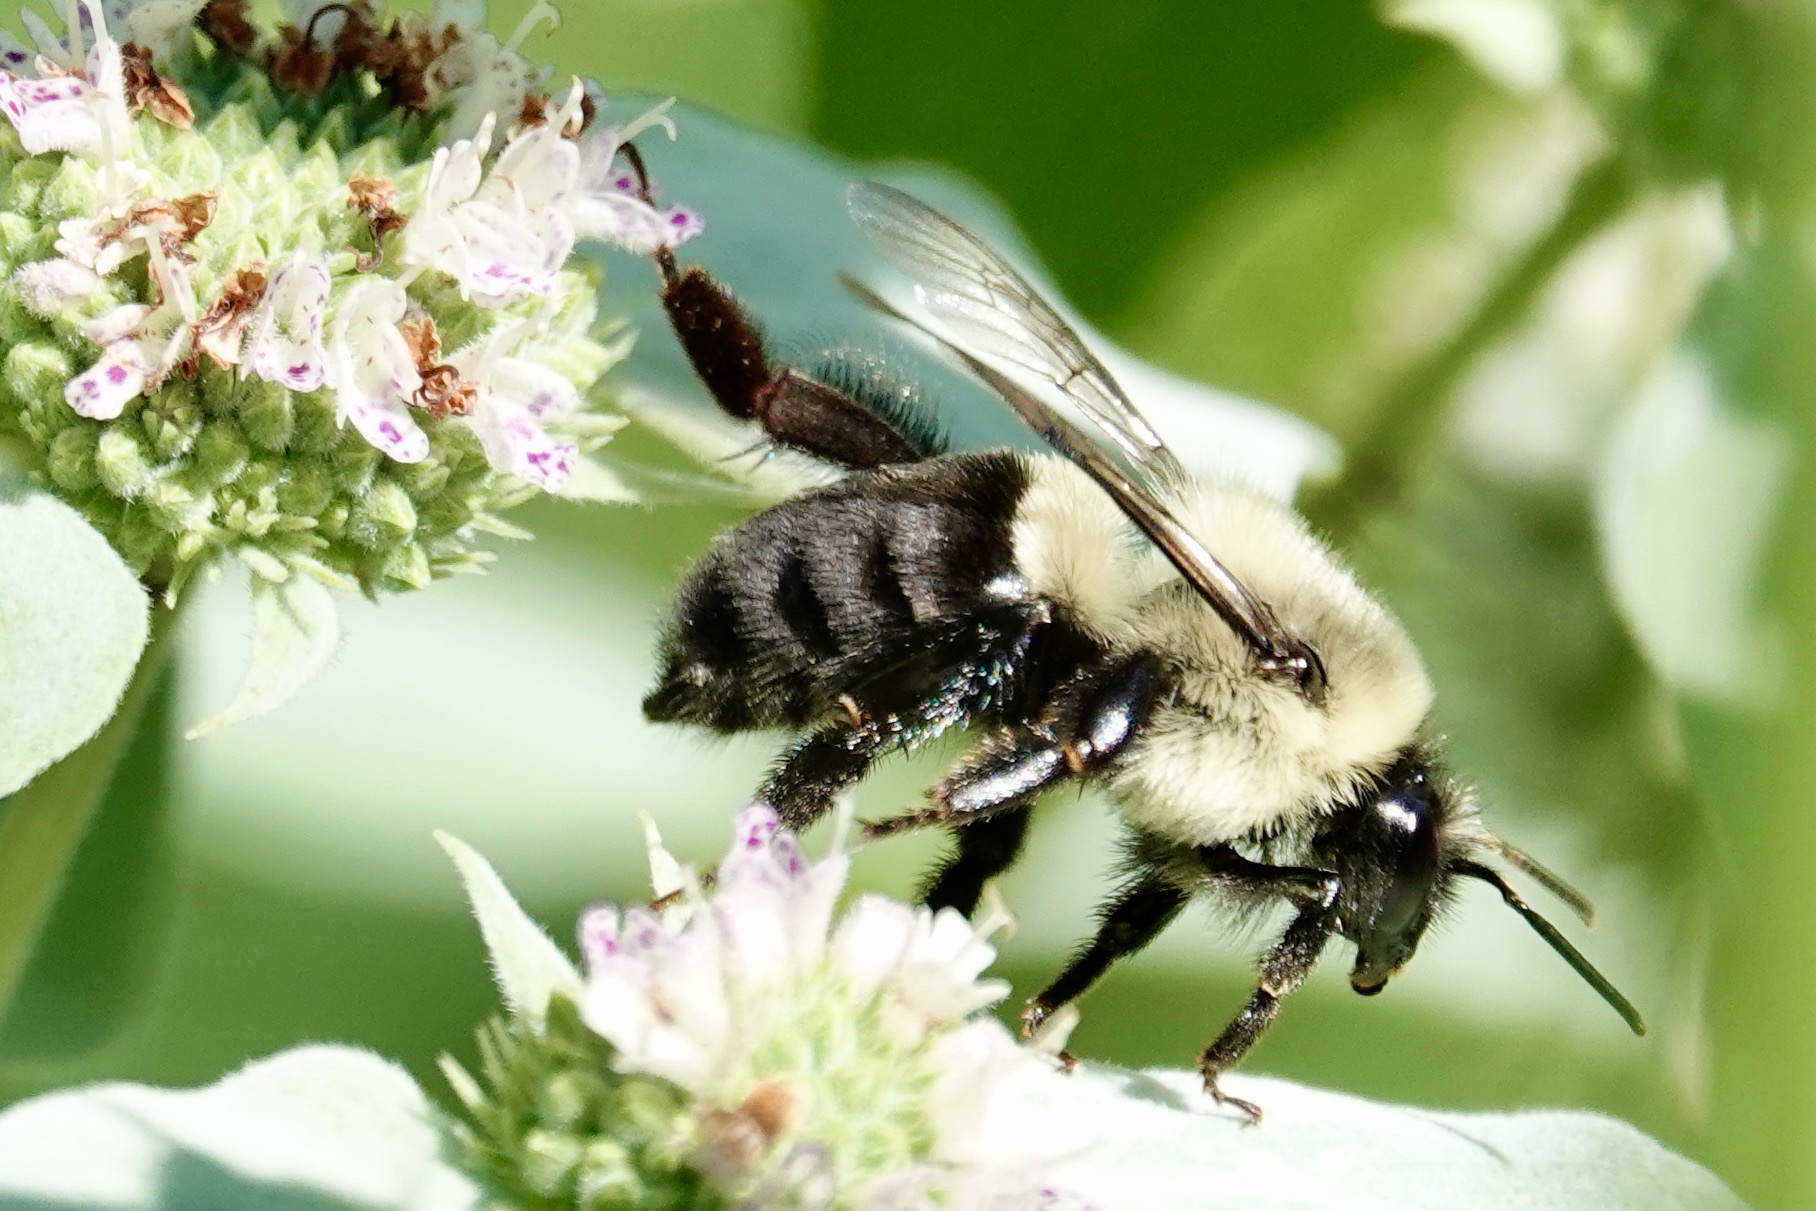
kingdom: Animalia
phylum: Arthropoda
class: Insecta
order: Hymenoptera
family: Apidae
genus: Bombus
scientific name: Bombus impatiens
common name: Common eastern bumble bee
